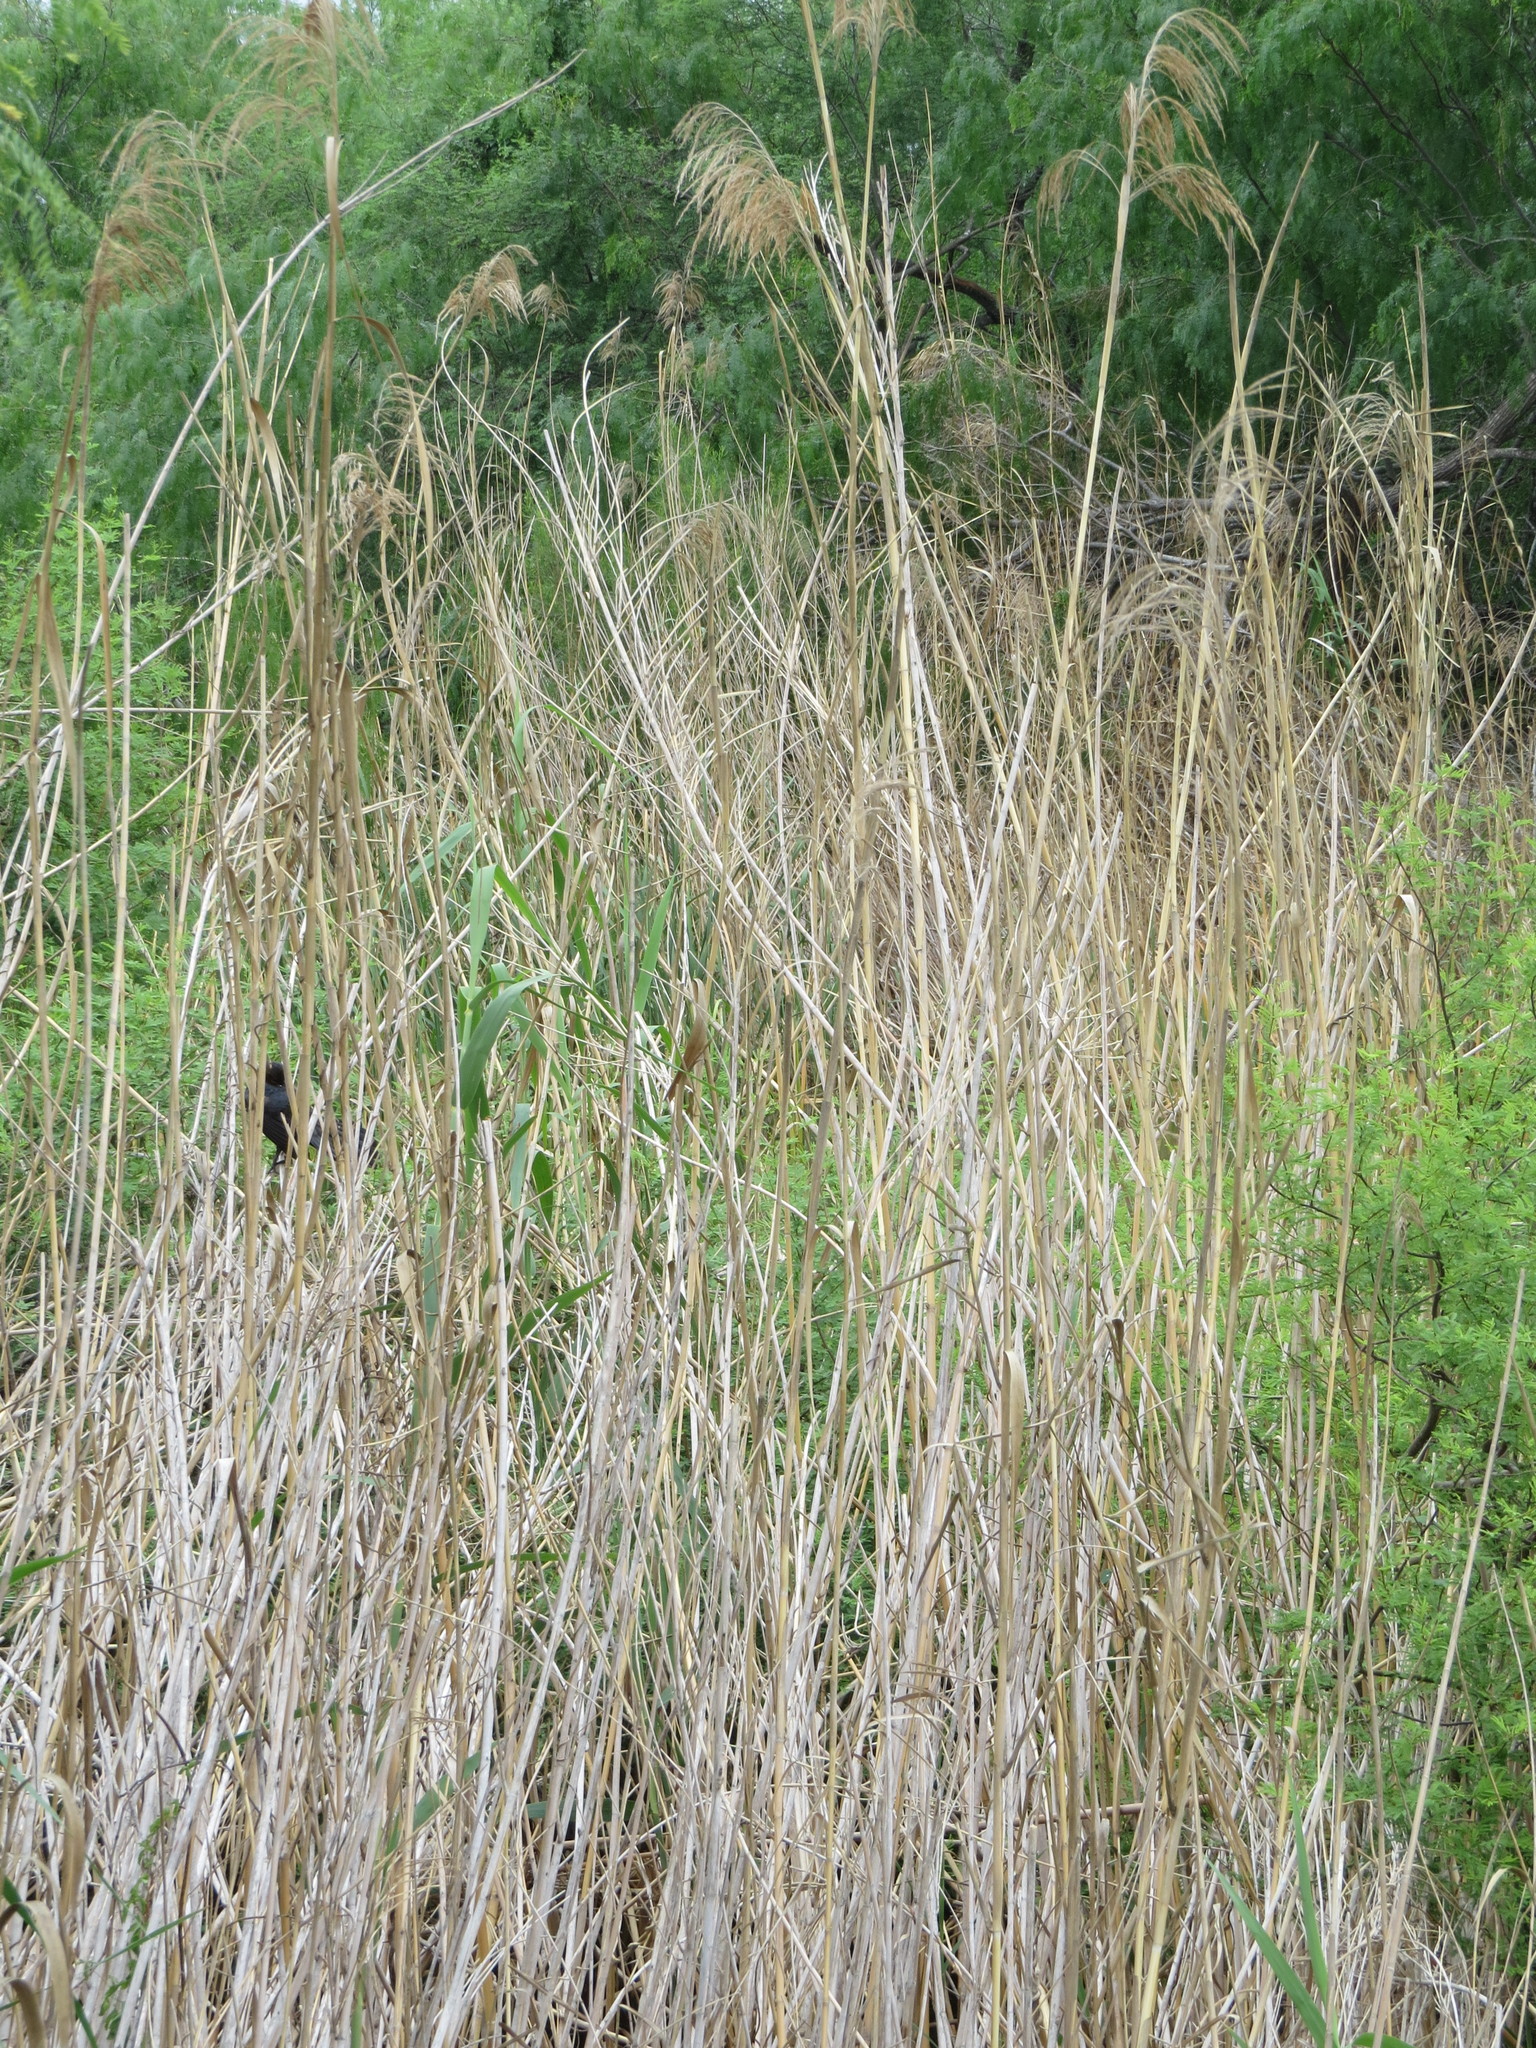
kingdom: Plantae
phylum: Tracheophyta
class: Liliopsida
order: Poales
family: Poaceae
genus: Phragmites
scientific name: Phragmites australis
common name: Common reed
